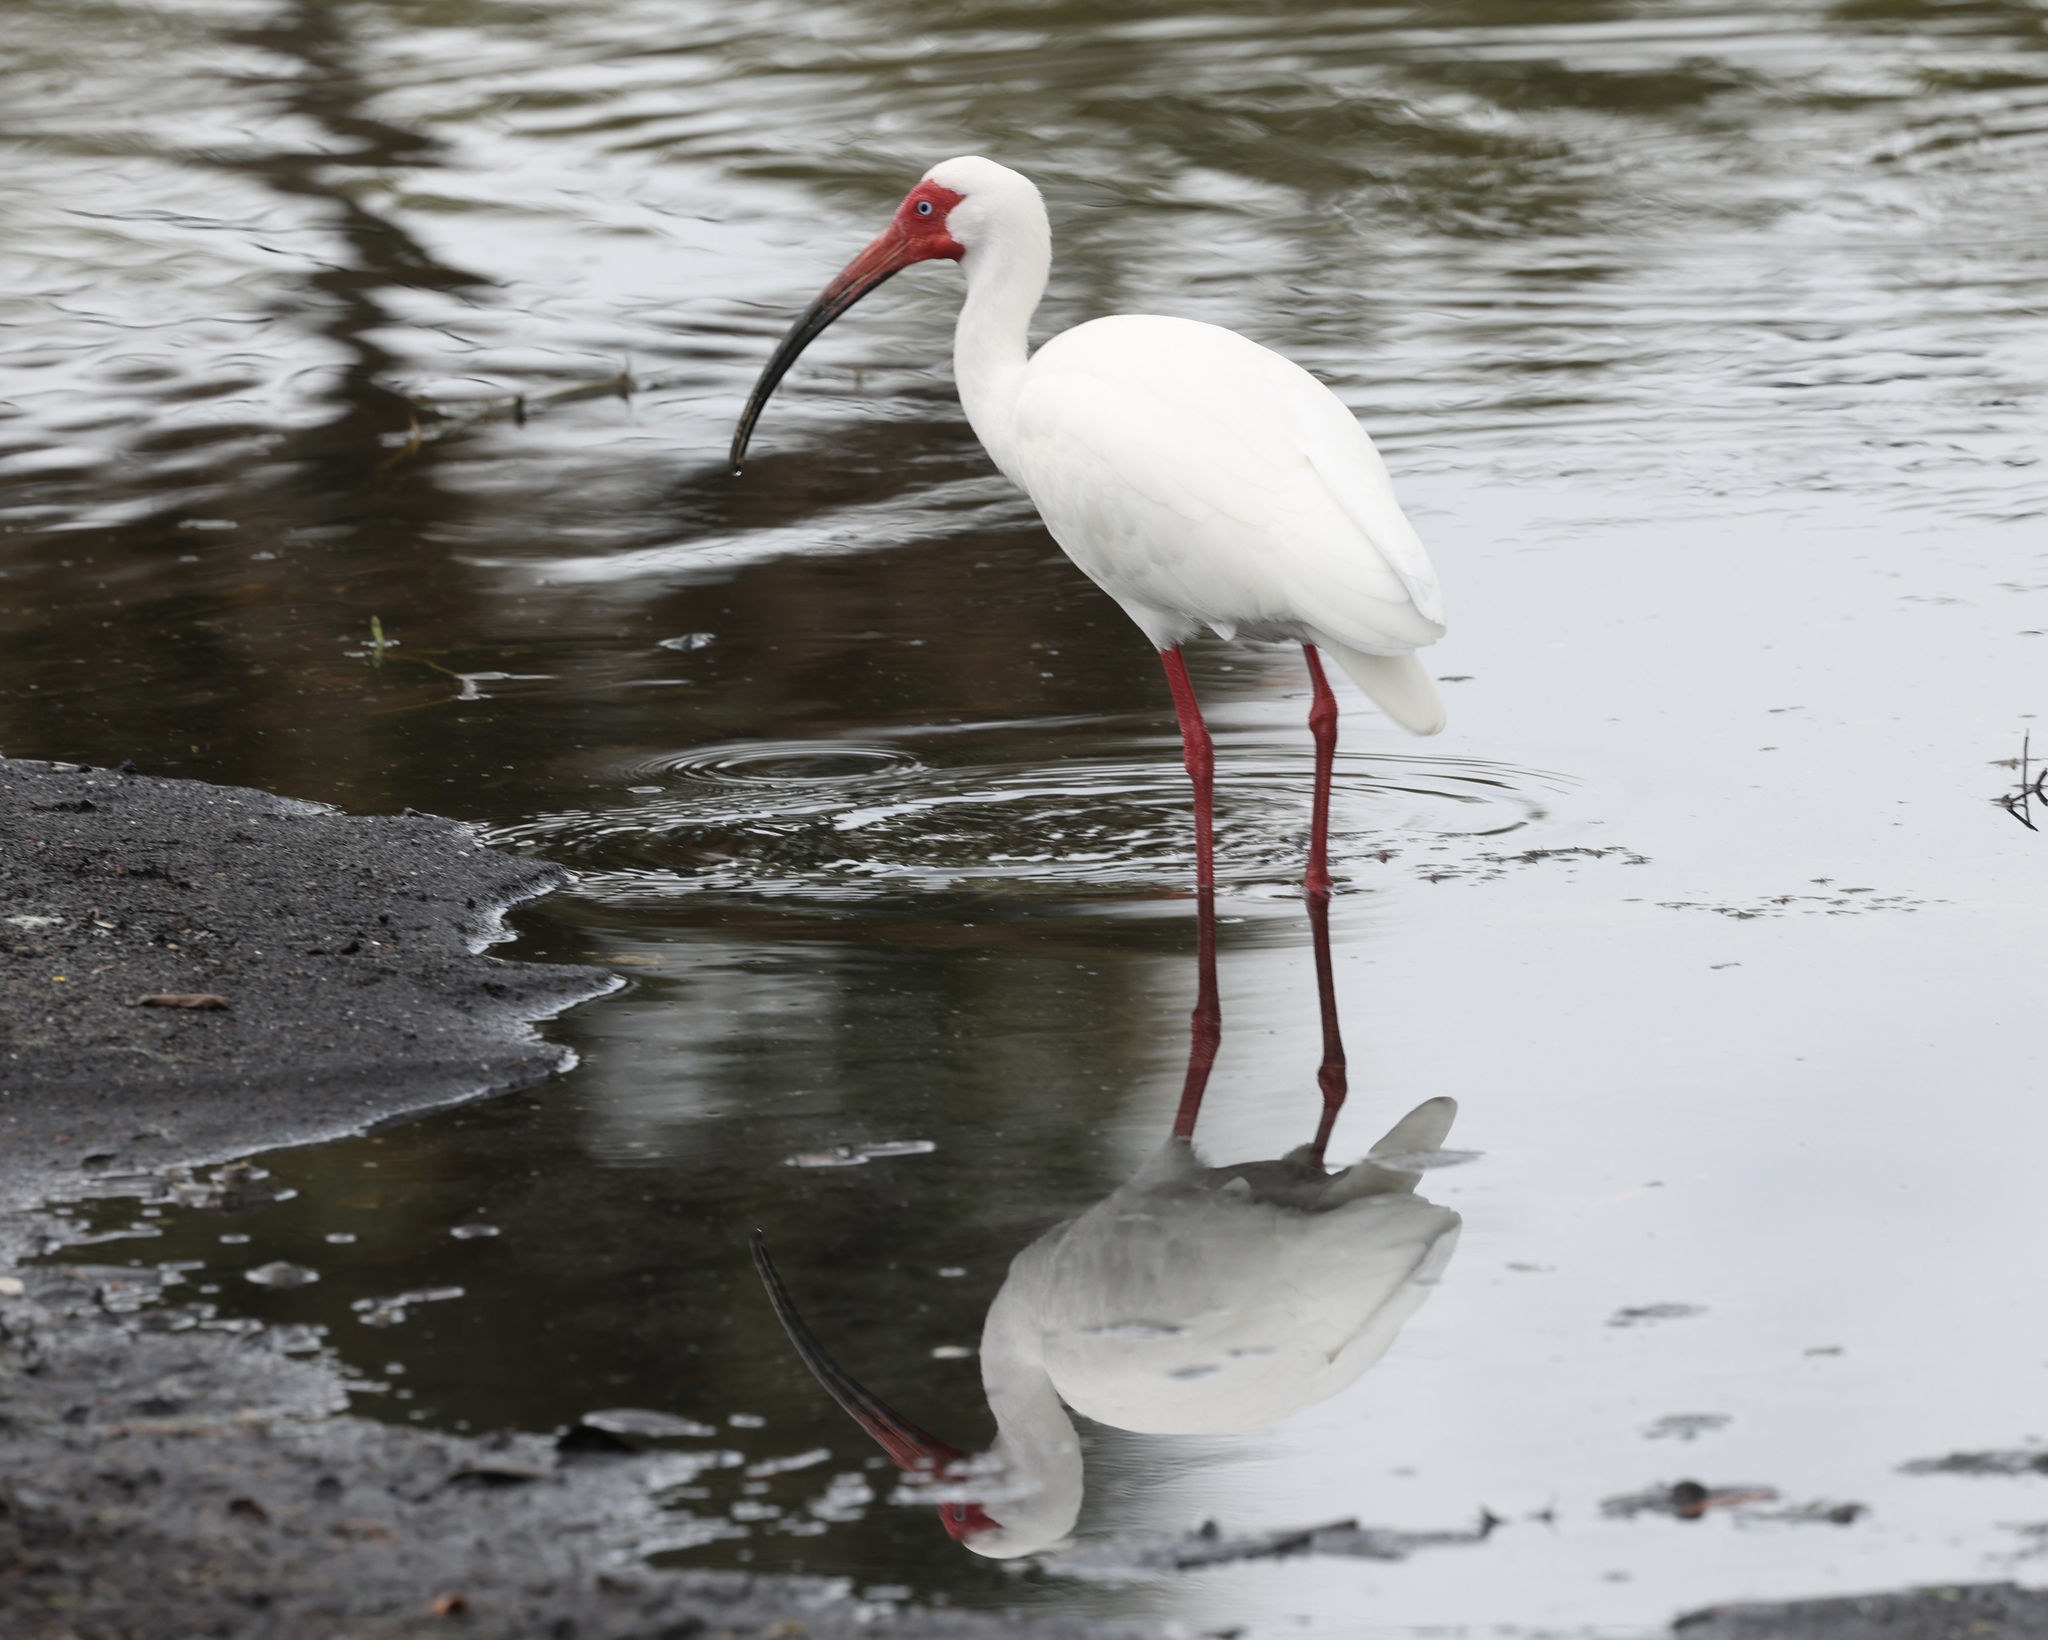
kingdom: Animalia
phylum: Chordata
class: Aves
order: Pelecaniformes
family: Threskiornithidae
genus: Eudocimus
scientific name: Eudocimus albus
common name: White ibis
